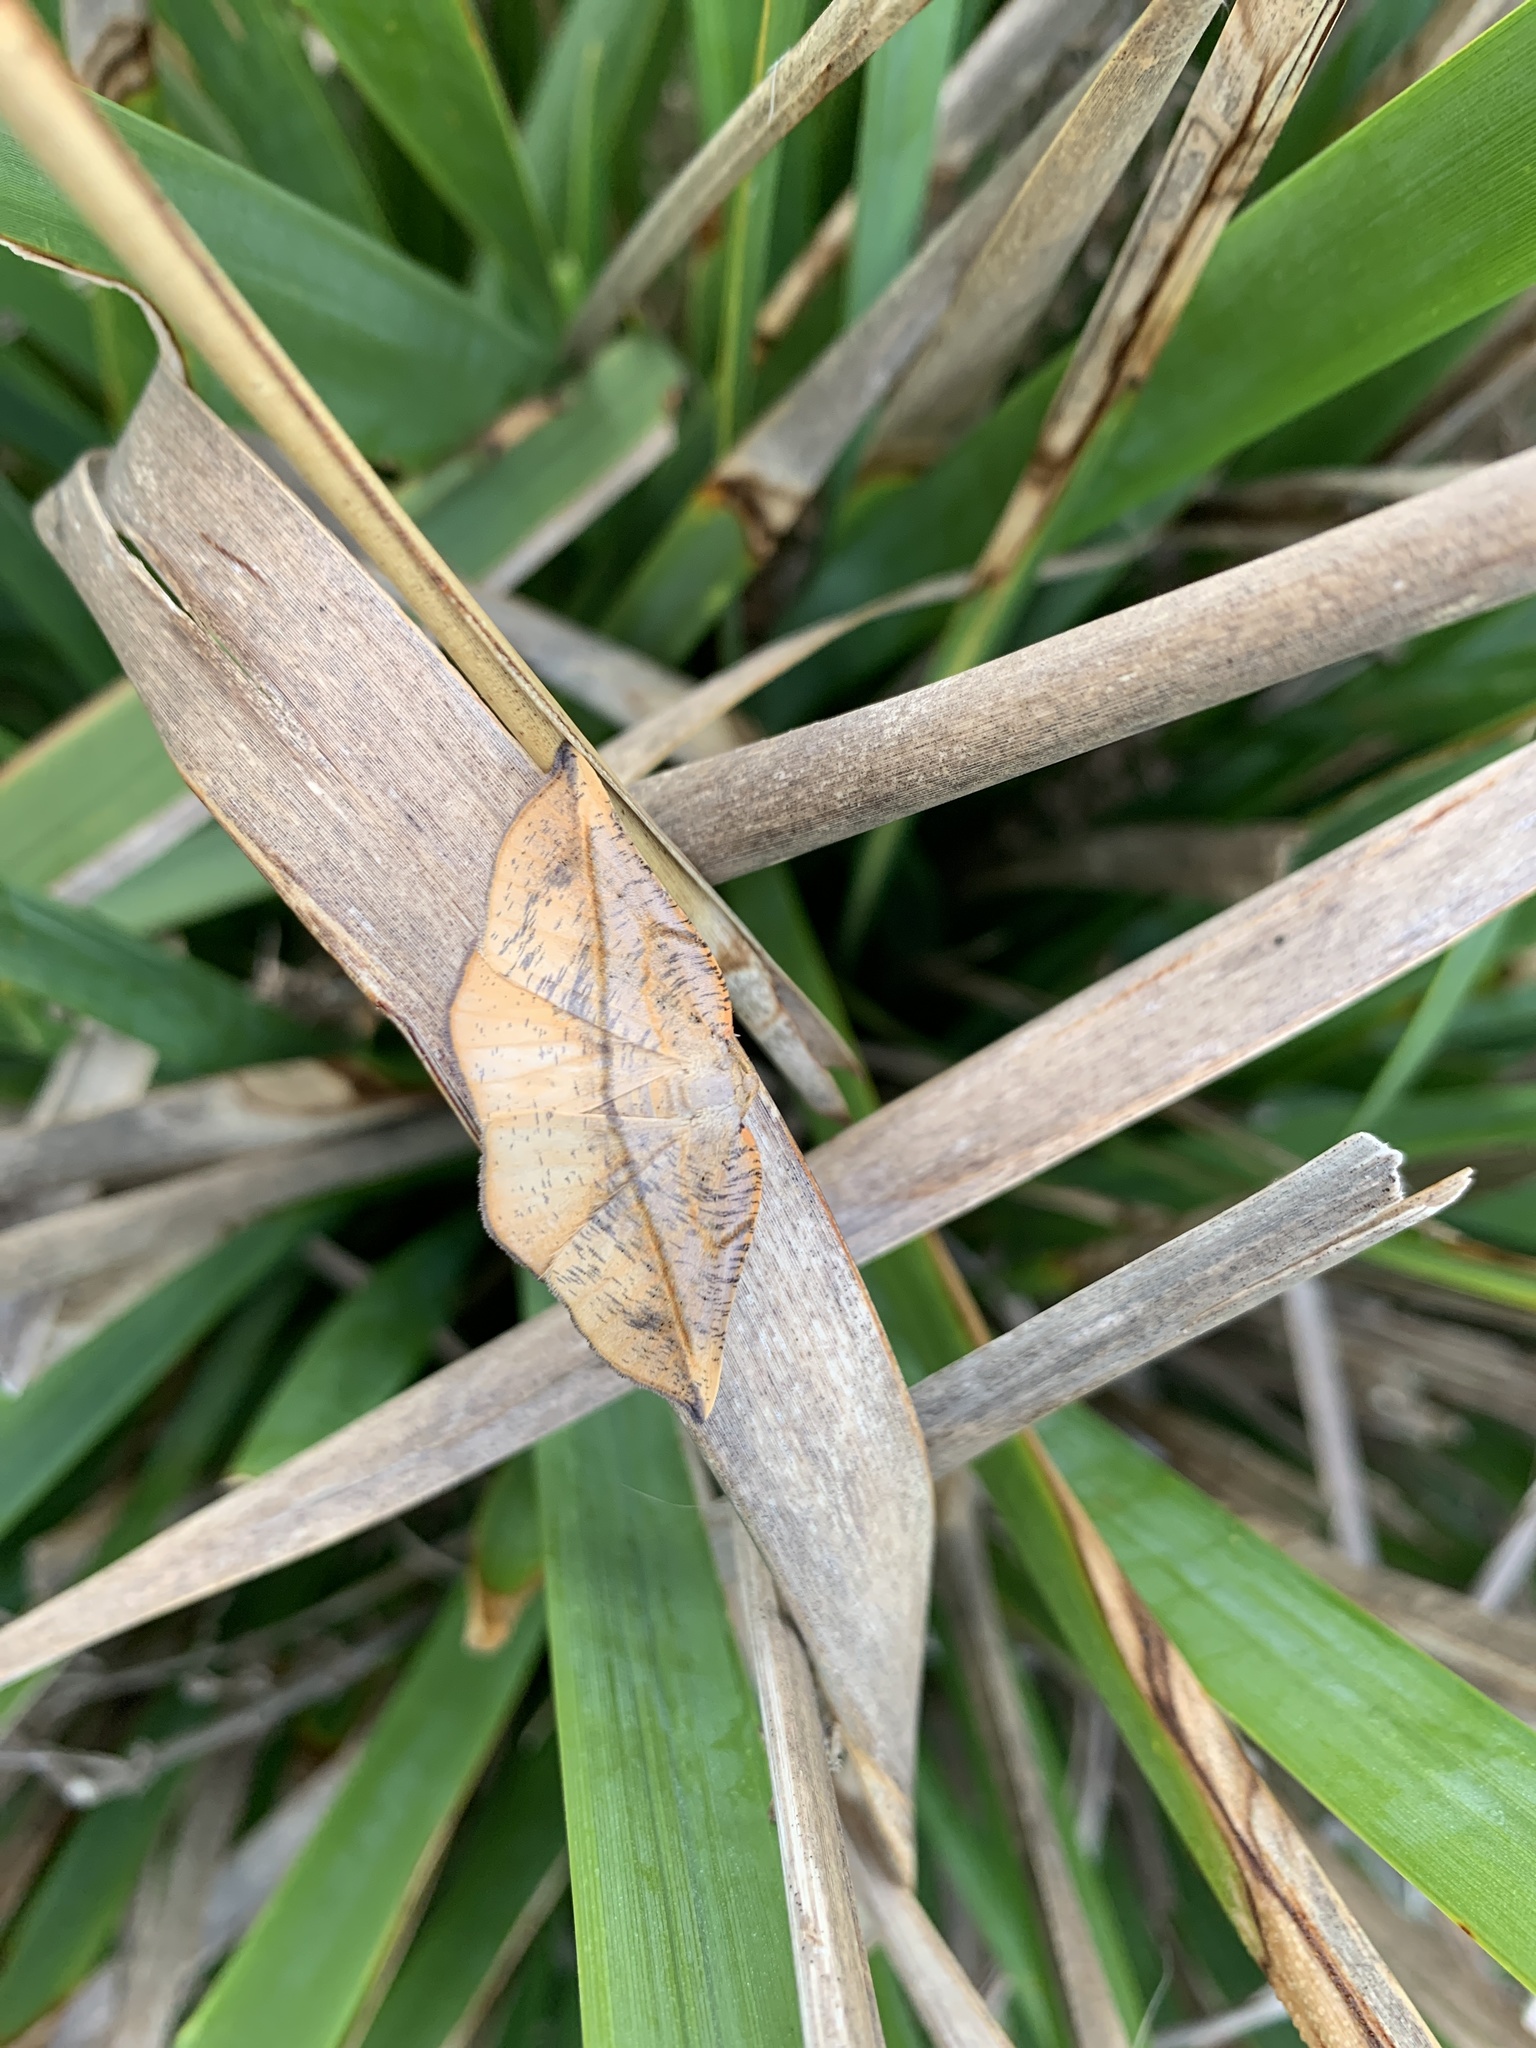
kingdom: Animalia
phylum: Arthropoda
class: Insecta
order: Lepidoptera
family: Geometridae
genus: Xenomusa
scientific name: Xenomusa monoda
